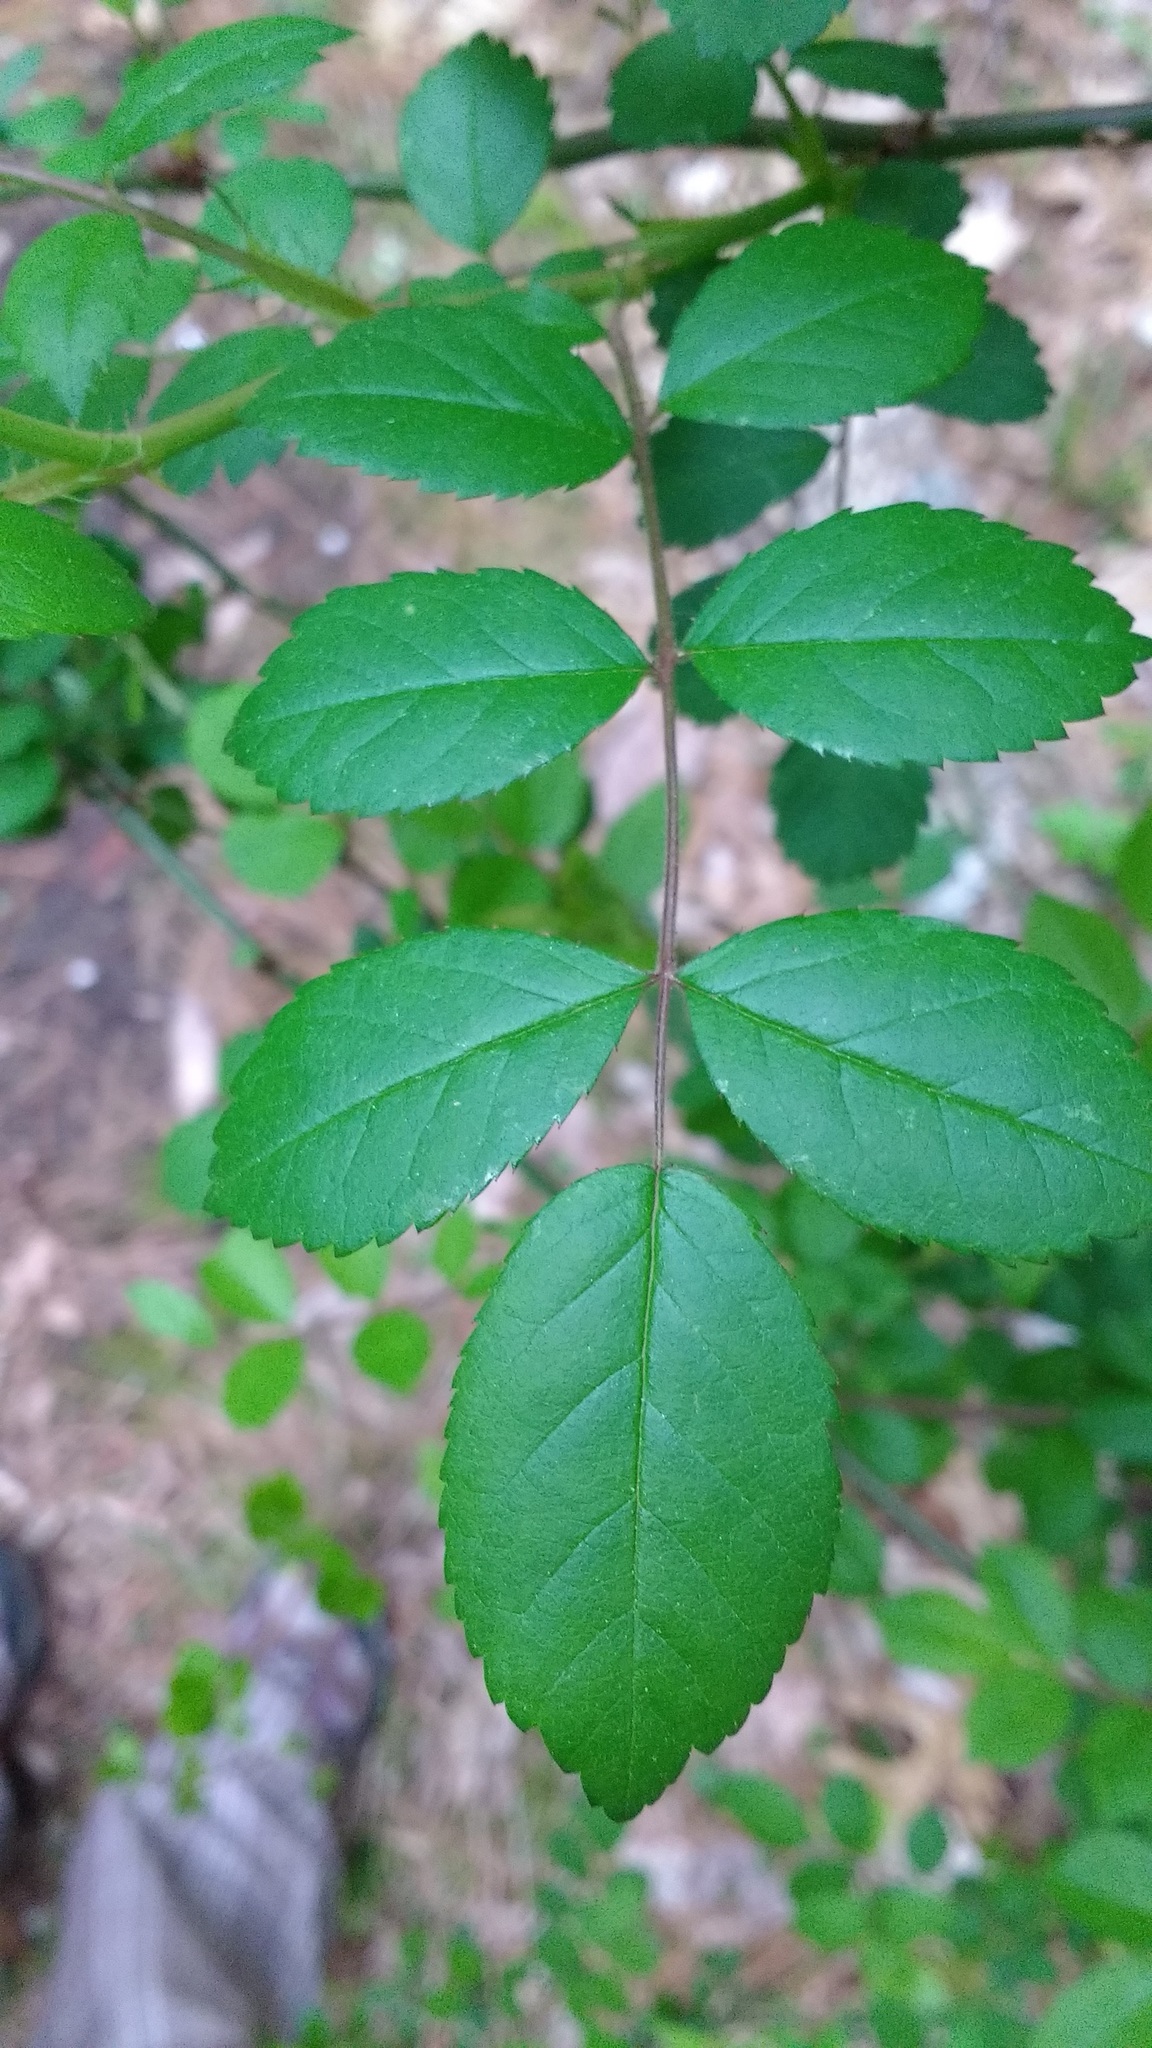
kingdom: Plantae
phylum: Tracheophyta
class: Magnoliopsida
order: Rosales
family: Rosaceae
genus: Rosa
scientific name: Rosa multiflora
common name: Multiflora rose
